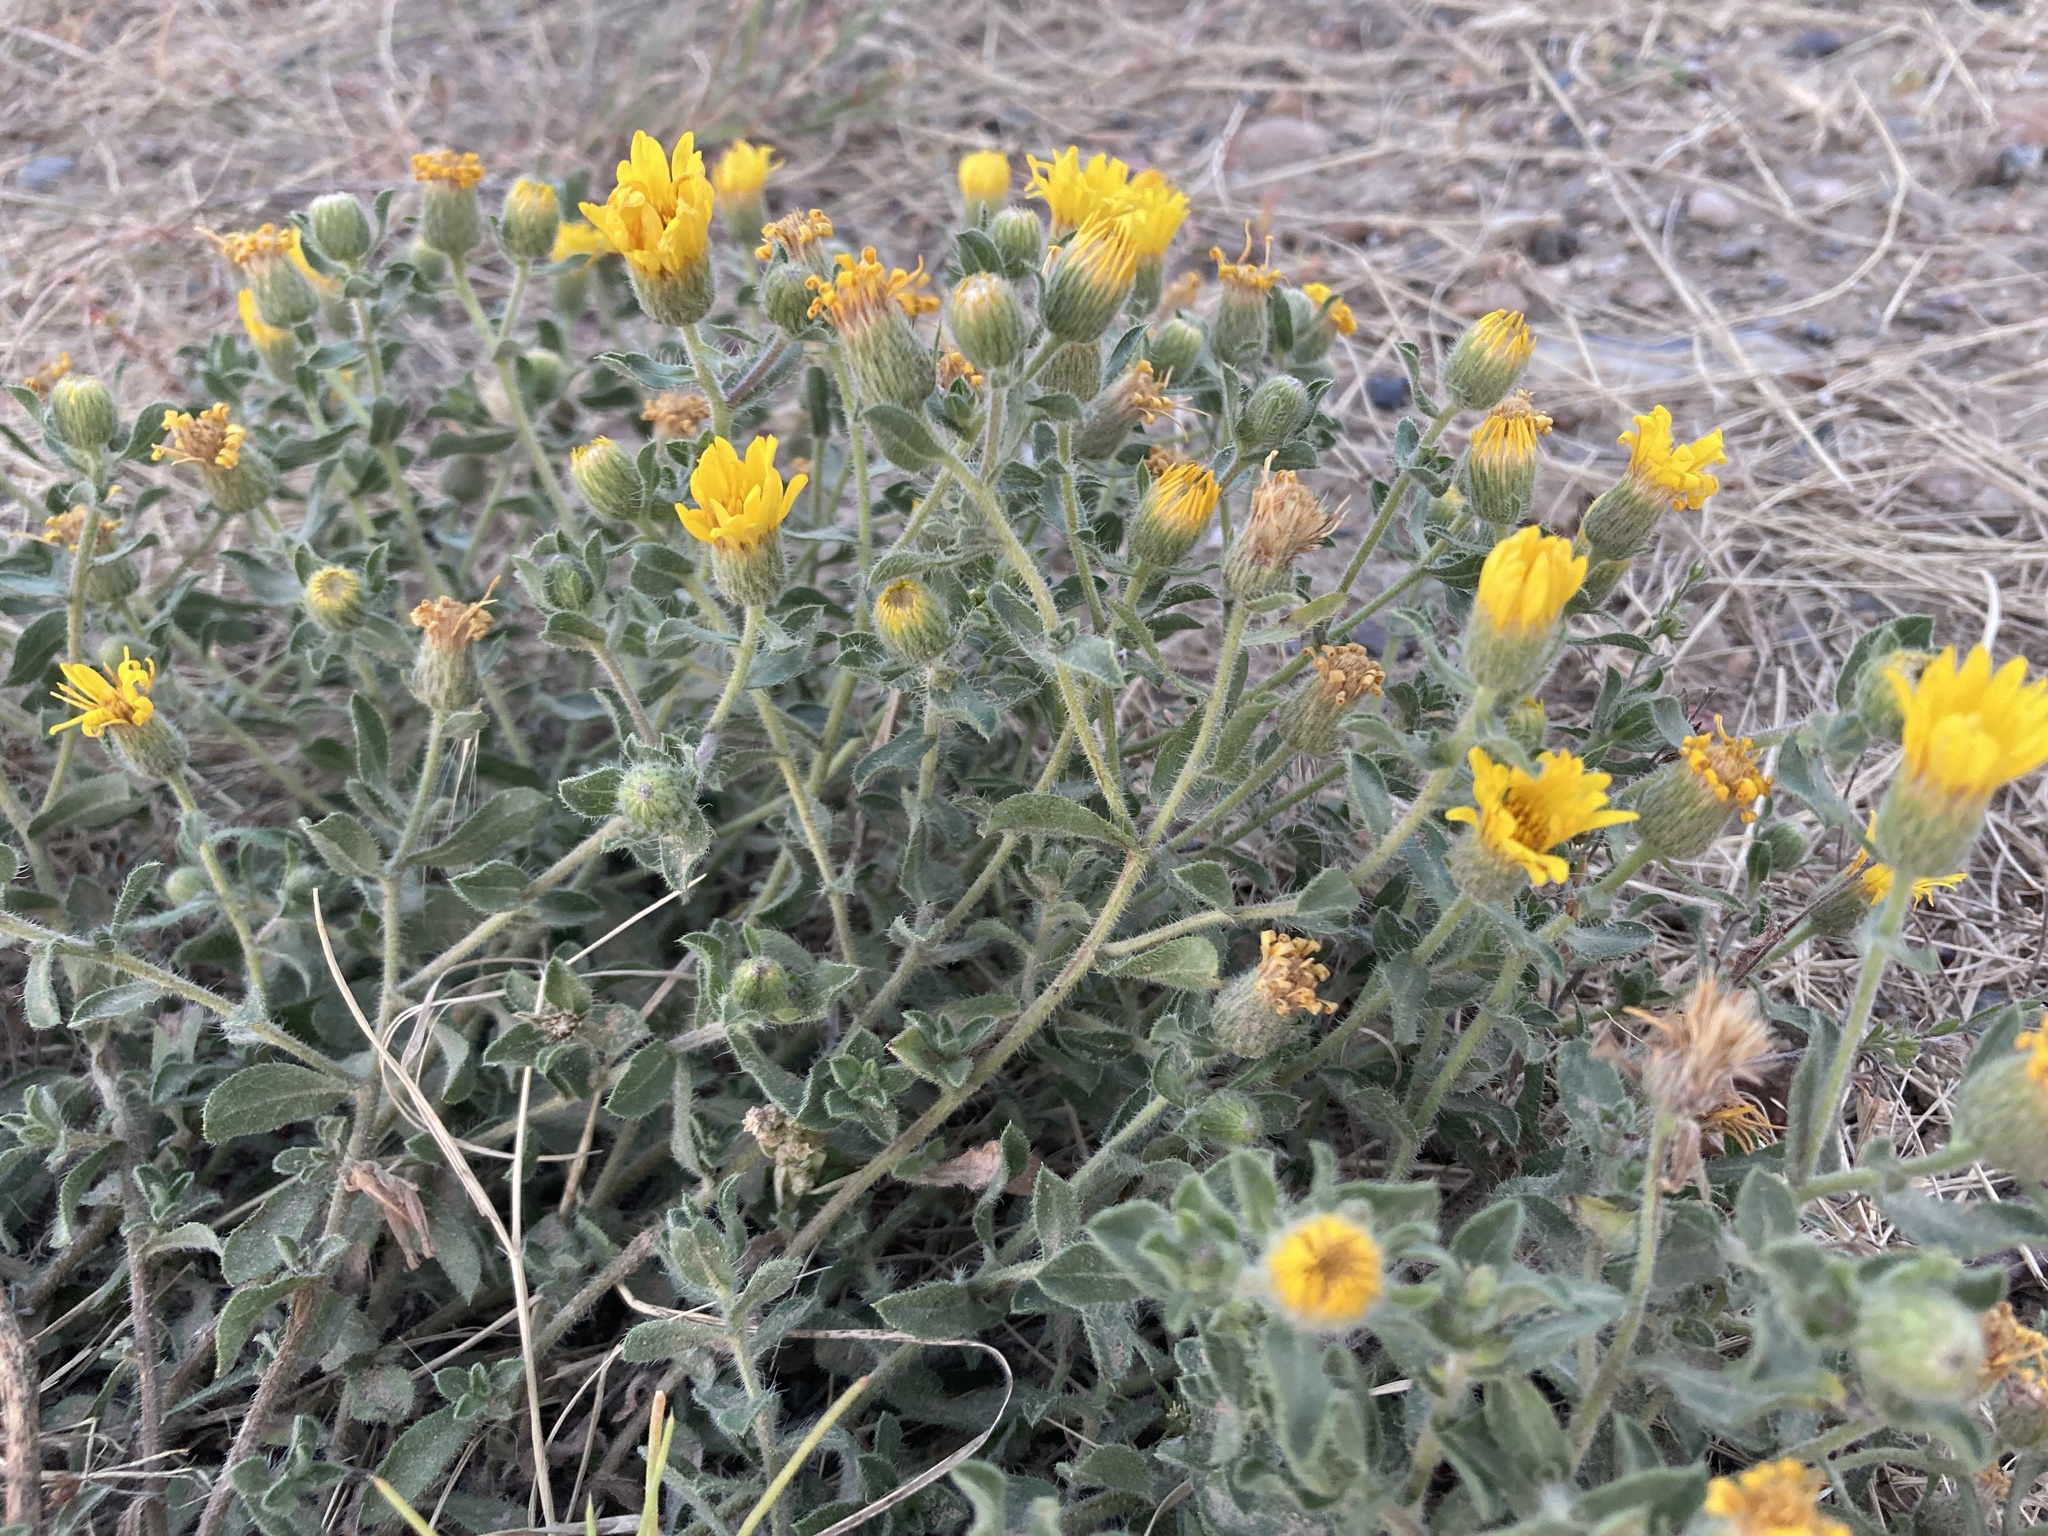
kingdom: Plantae
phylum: Tracheophyta
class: Magnoliopsida
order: Asterales
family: Asteraceae
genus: Heterotheca
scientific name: Heterotheca villosa
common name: Hairy false goldenaster
